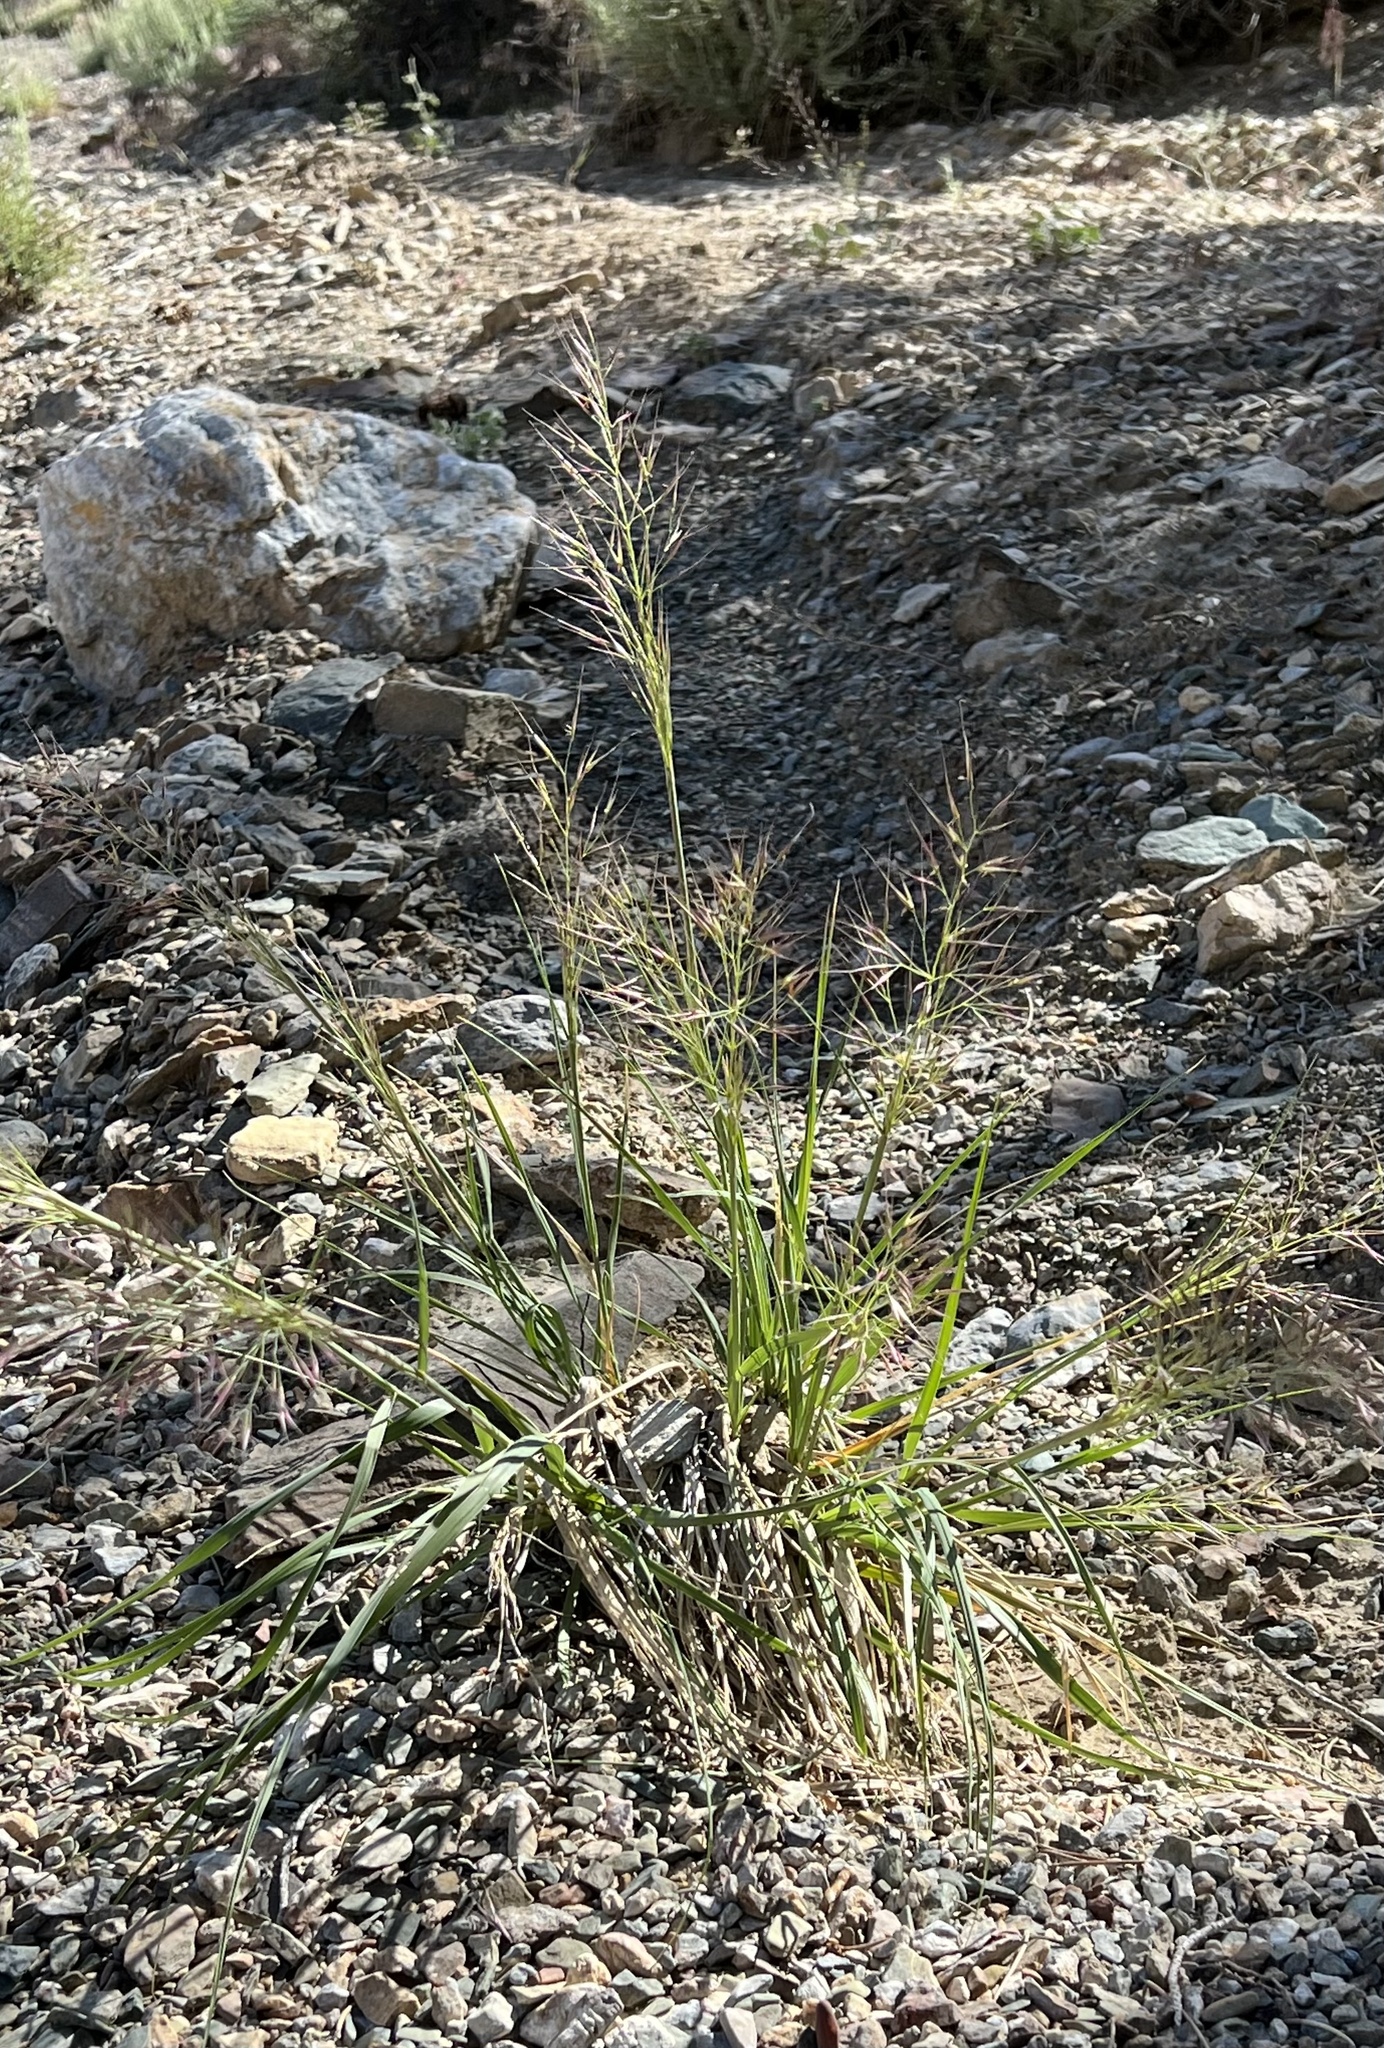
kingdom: Plantae
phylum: Tracheophyta
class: Liliopsida
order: Poales
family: Poaceae
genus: Eriocoma
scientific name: Eriocoma parishii
